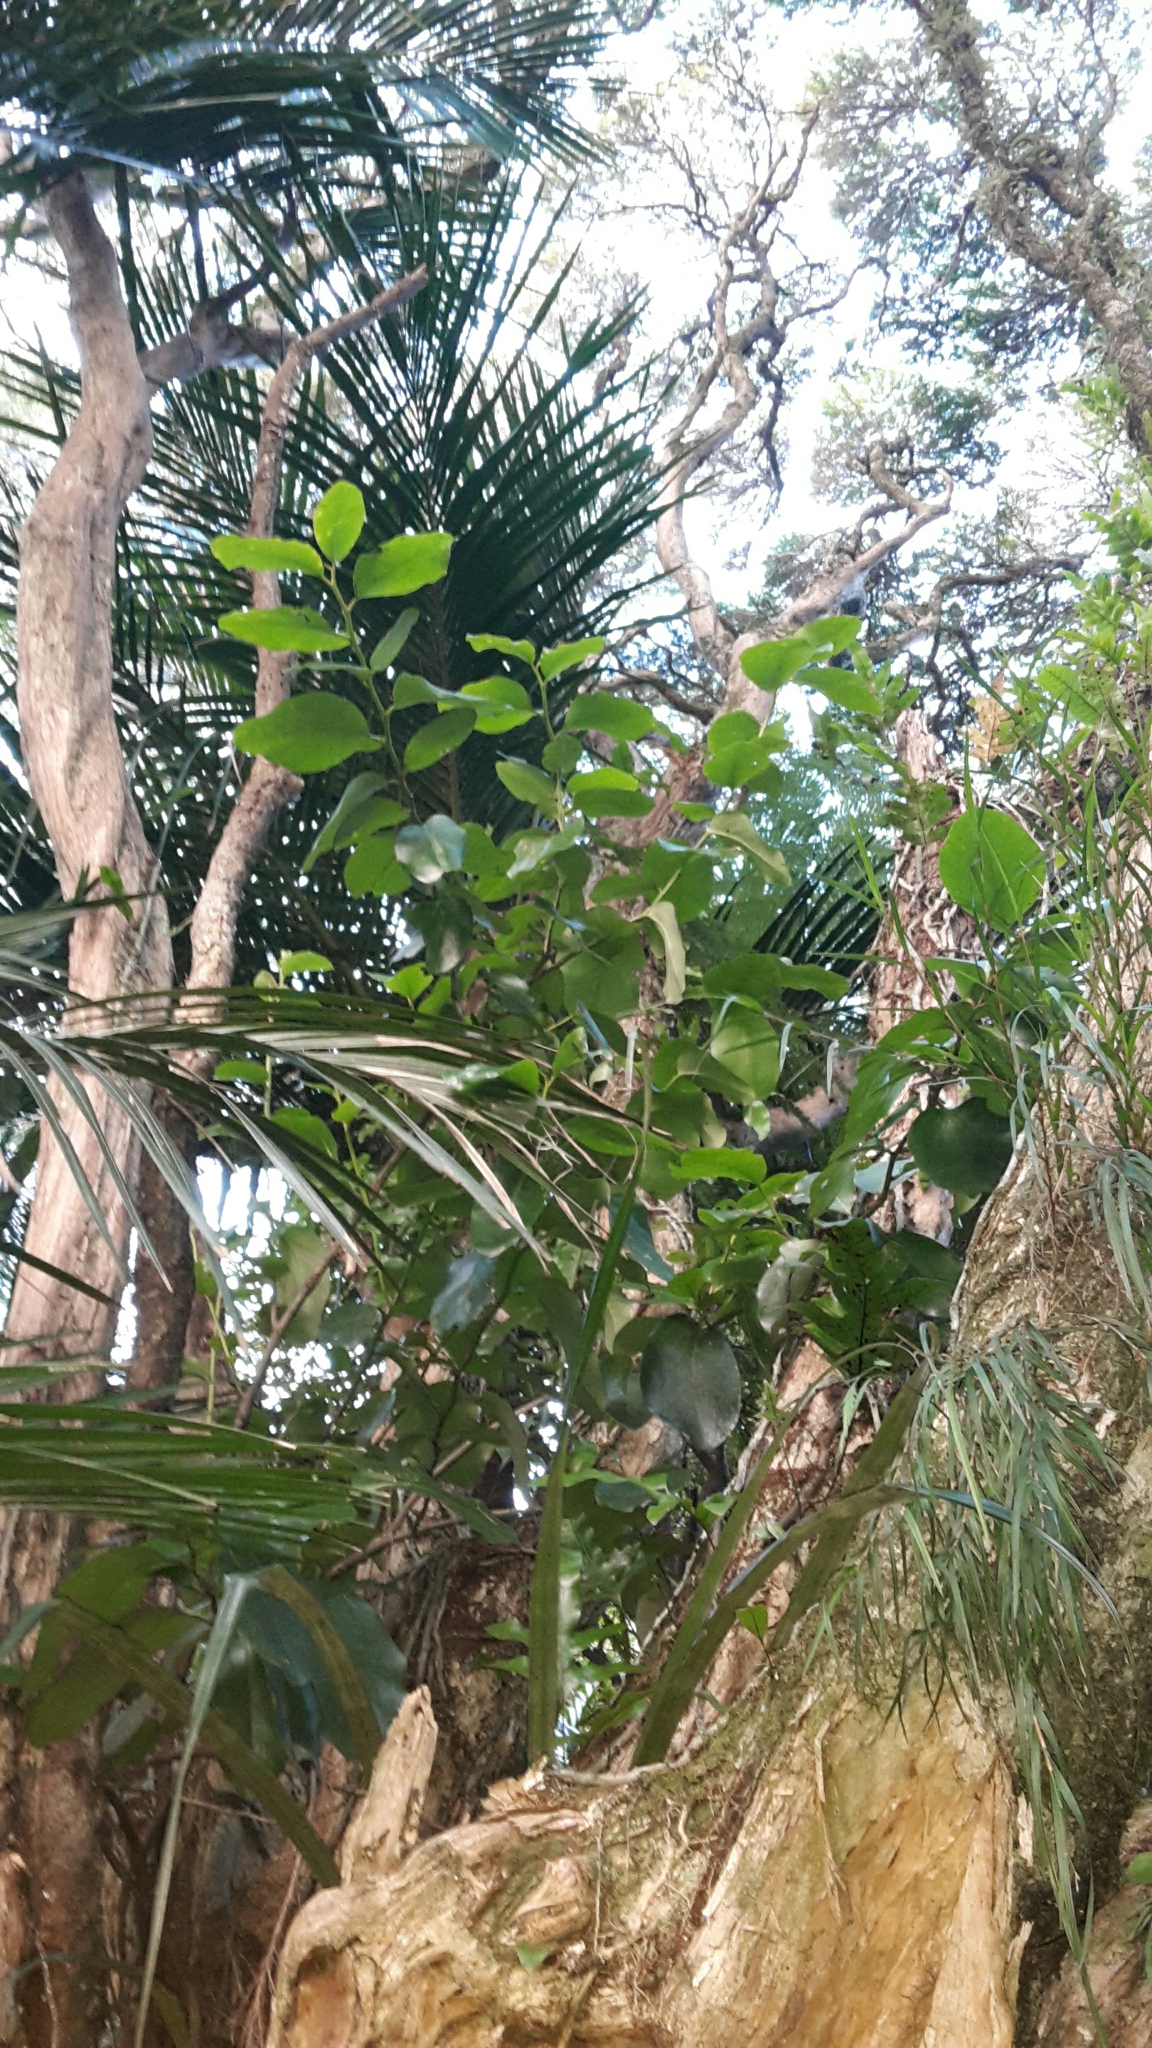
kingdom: Plantae
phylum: Tracheophyta
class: Magnoliopsida
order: Apiales
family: Griseliniaceae
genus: Griselinia
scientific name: Griselinia lucida
